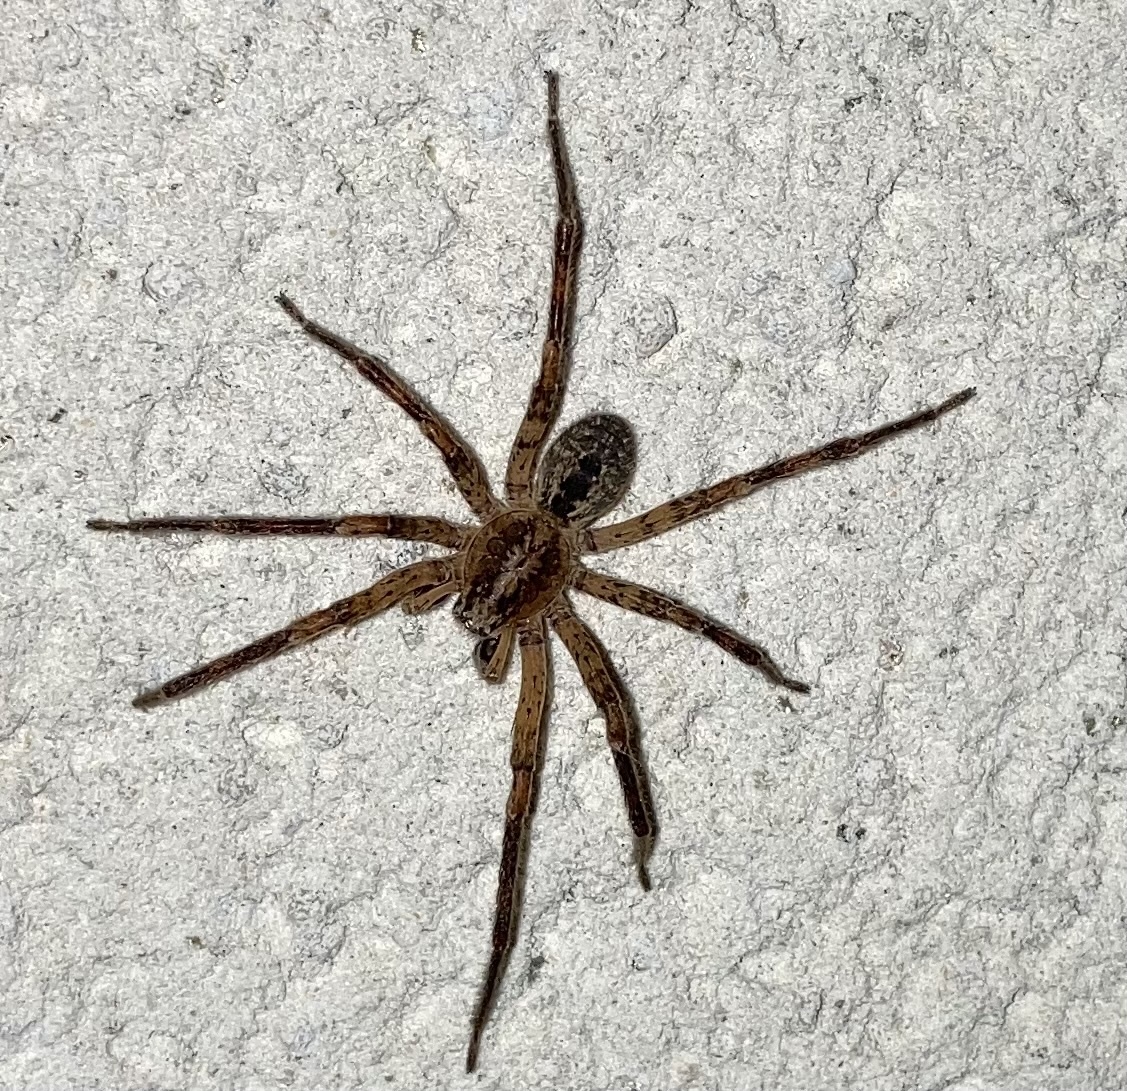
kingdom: Animalia
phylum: Arthropoda
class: Arachnida
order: Araneae
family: Zoropsidae
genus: Zoropsis
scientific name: Zoropsis spinimana
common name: Zoropsid spider
